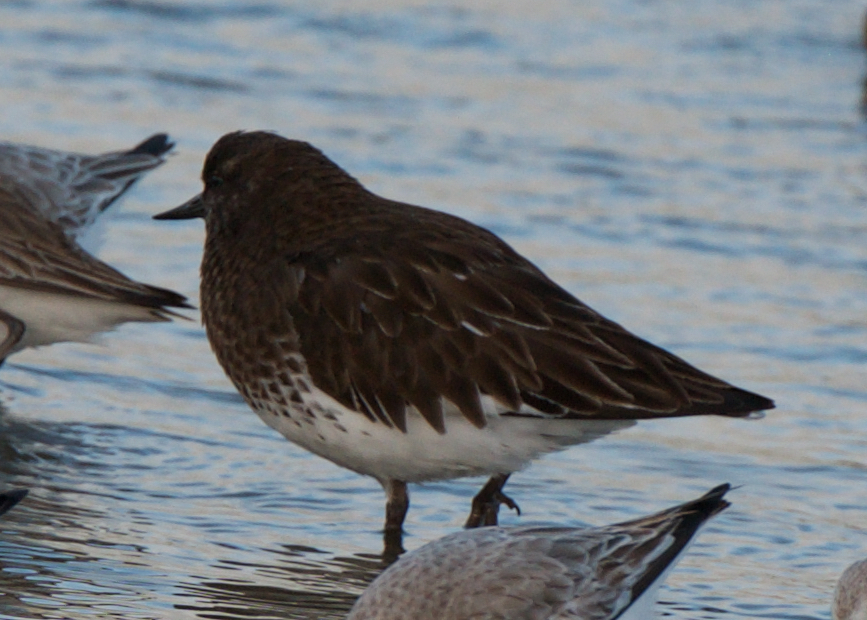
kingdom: Animalia
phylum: Chordata
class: Aves
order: Charadriiformes
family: Scolopacidae
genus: Arenaria
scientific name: Arenaria melanocephala
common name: Black turnstone
